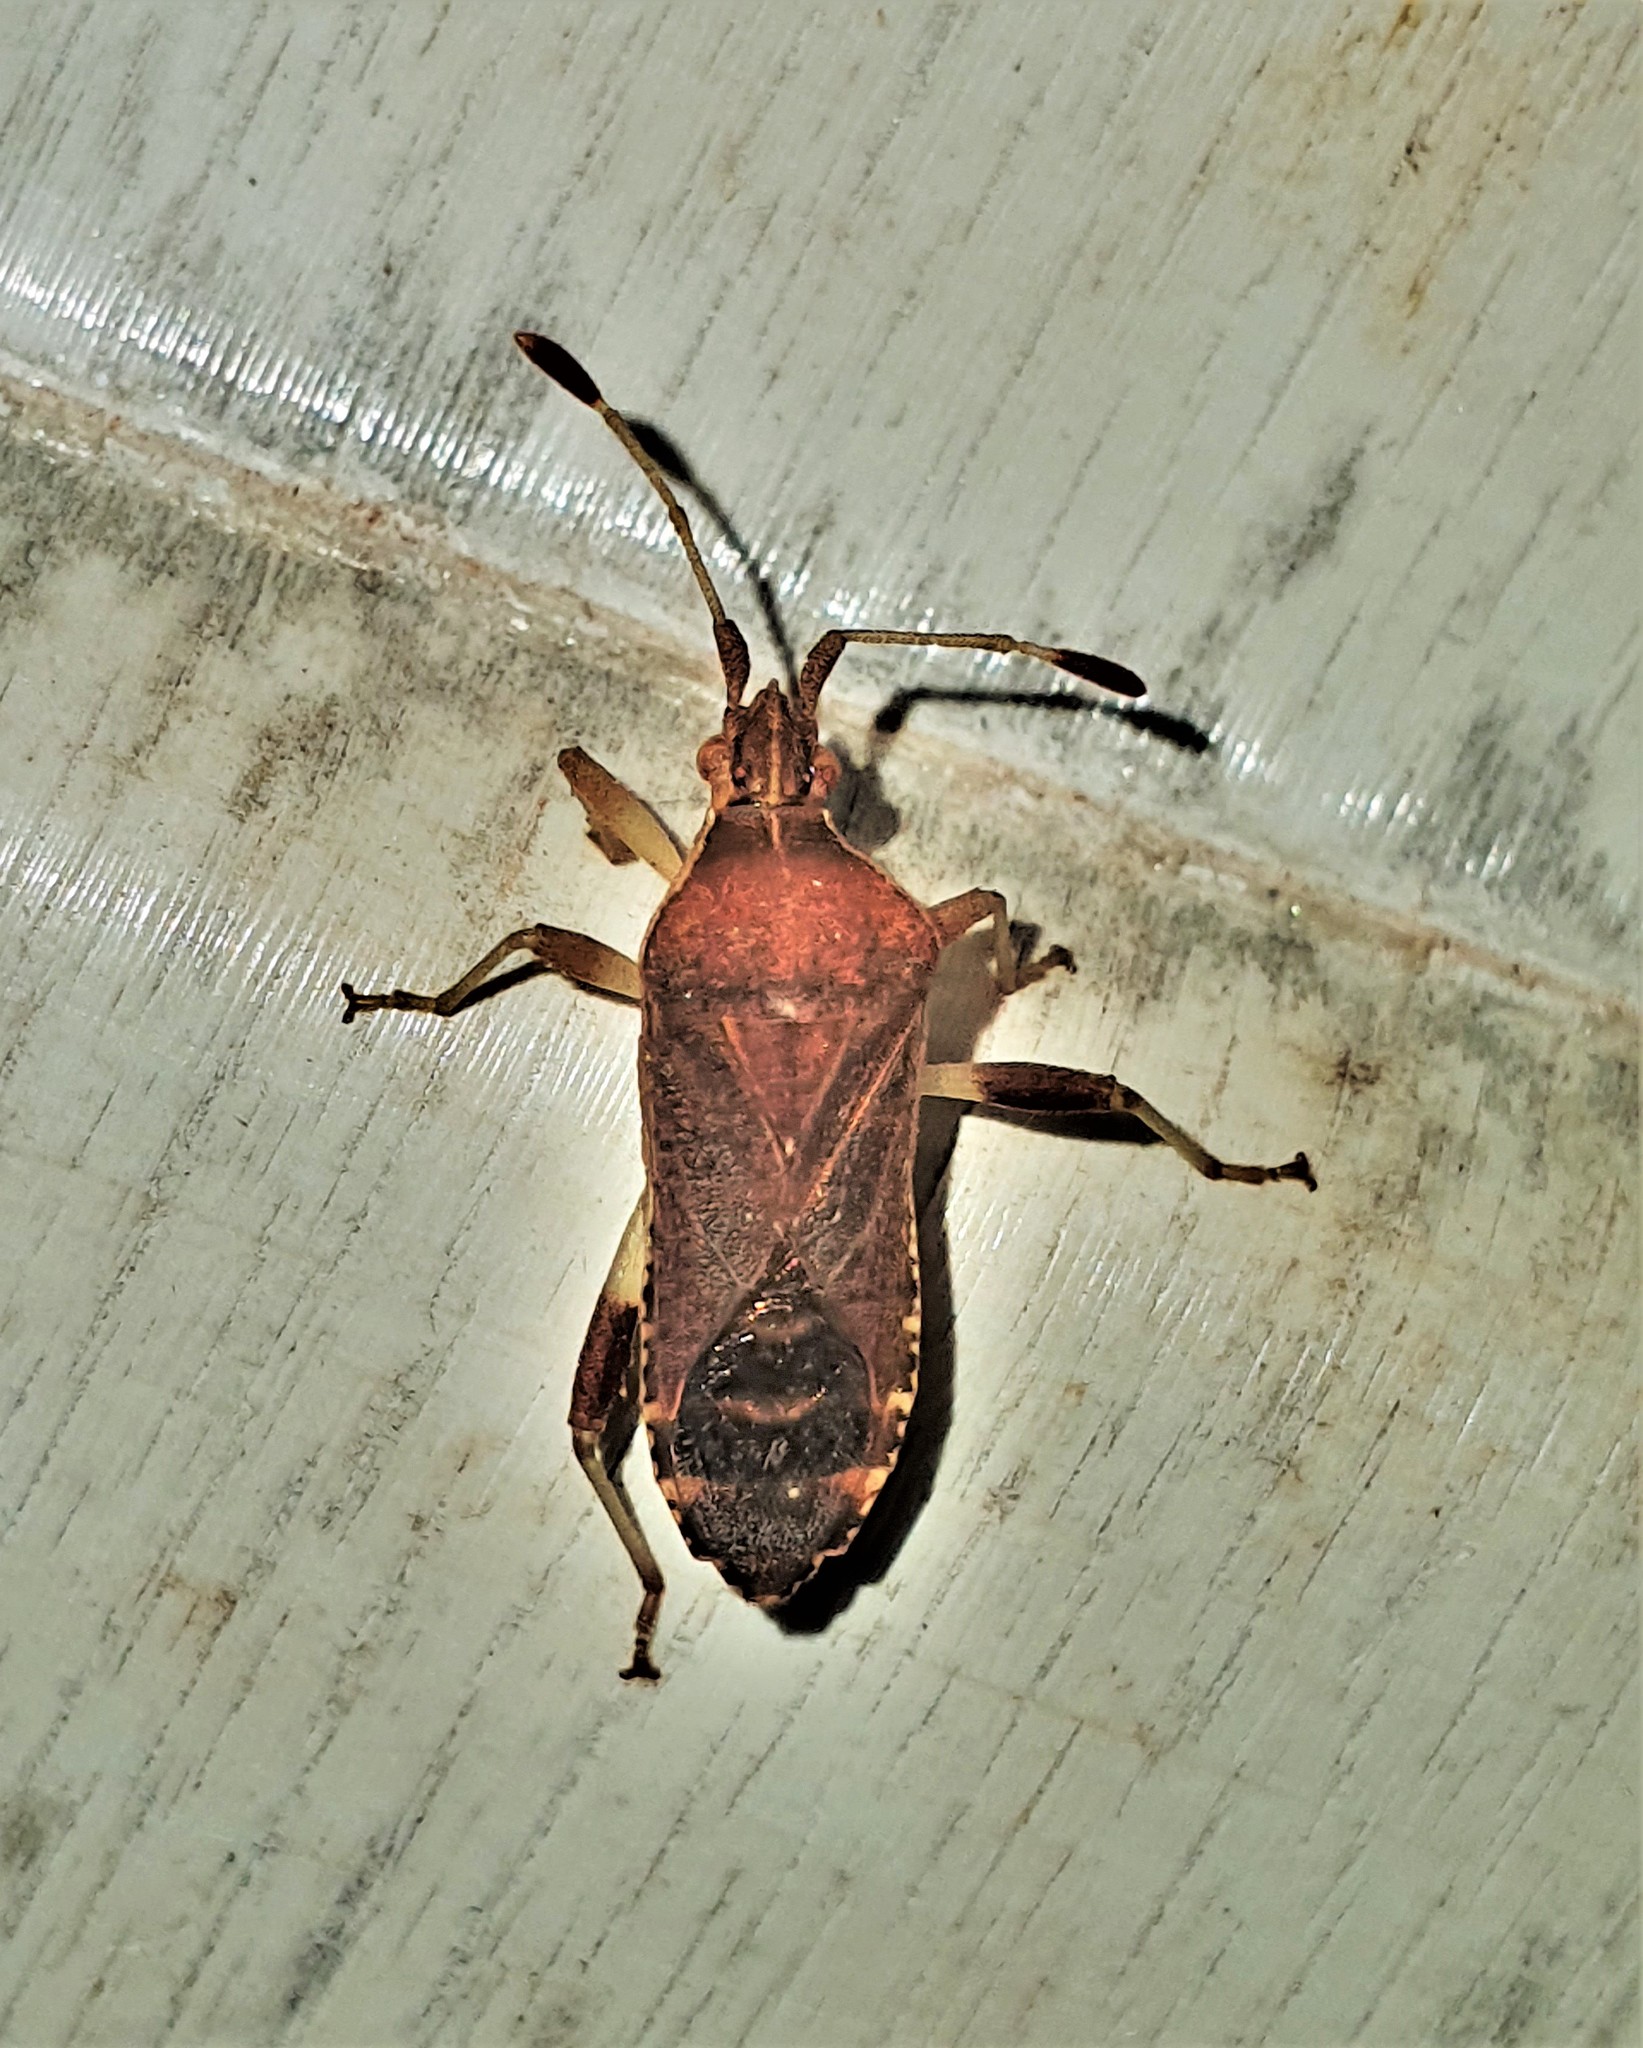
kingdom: Animalia
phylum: Arthropoda
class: Insecta
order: Hemiptera
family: Coreidae
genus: Dalmatomammurius
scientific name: Dalmatomammurius sobrius
